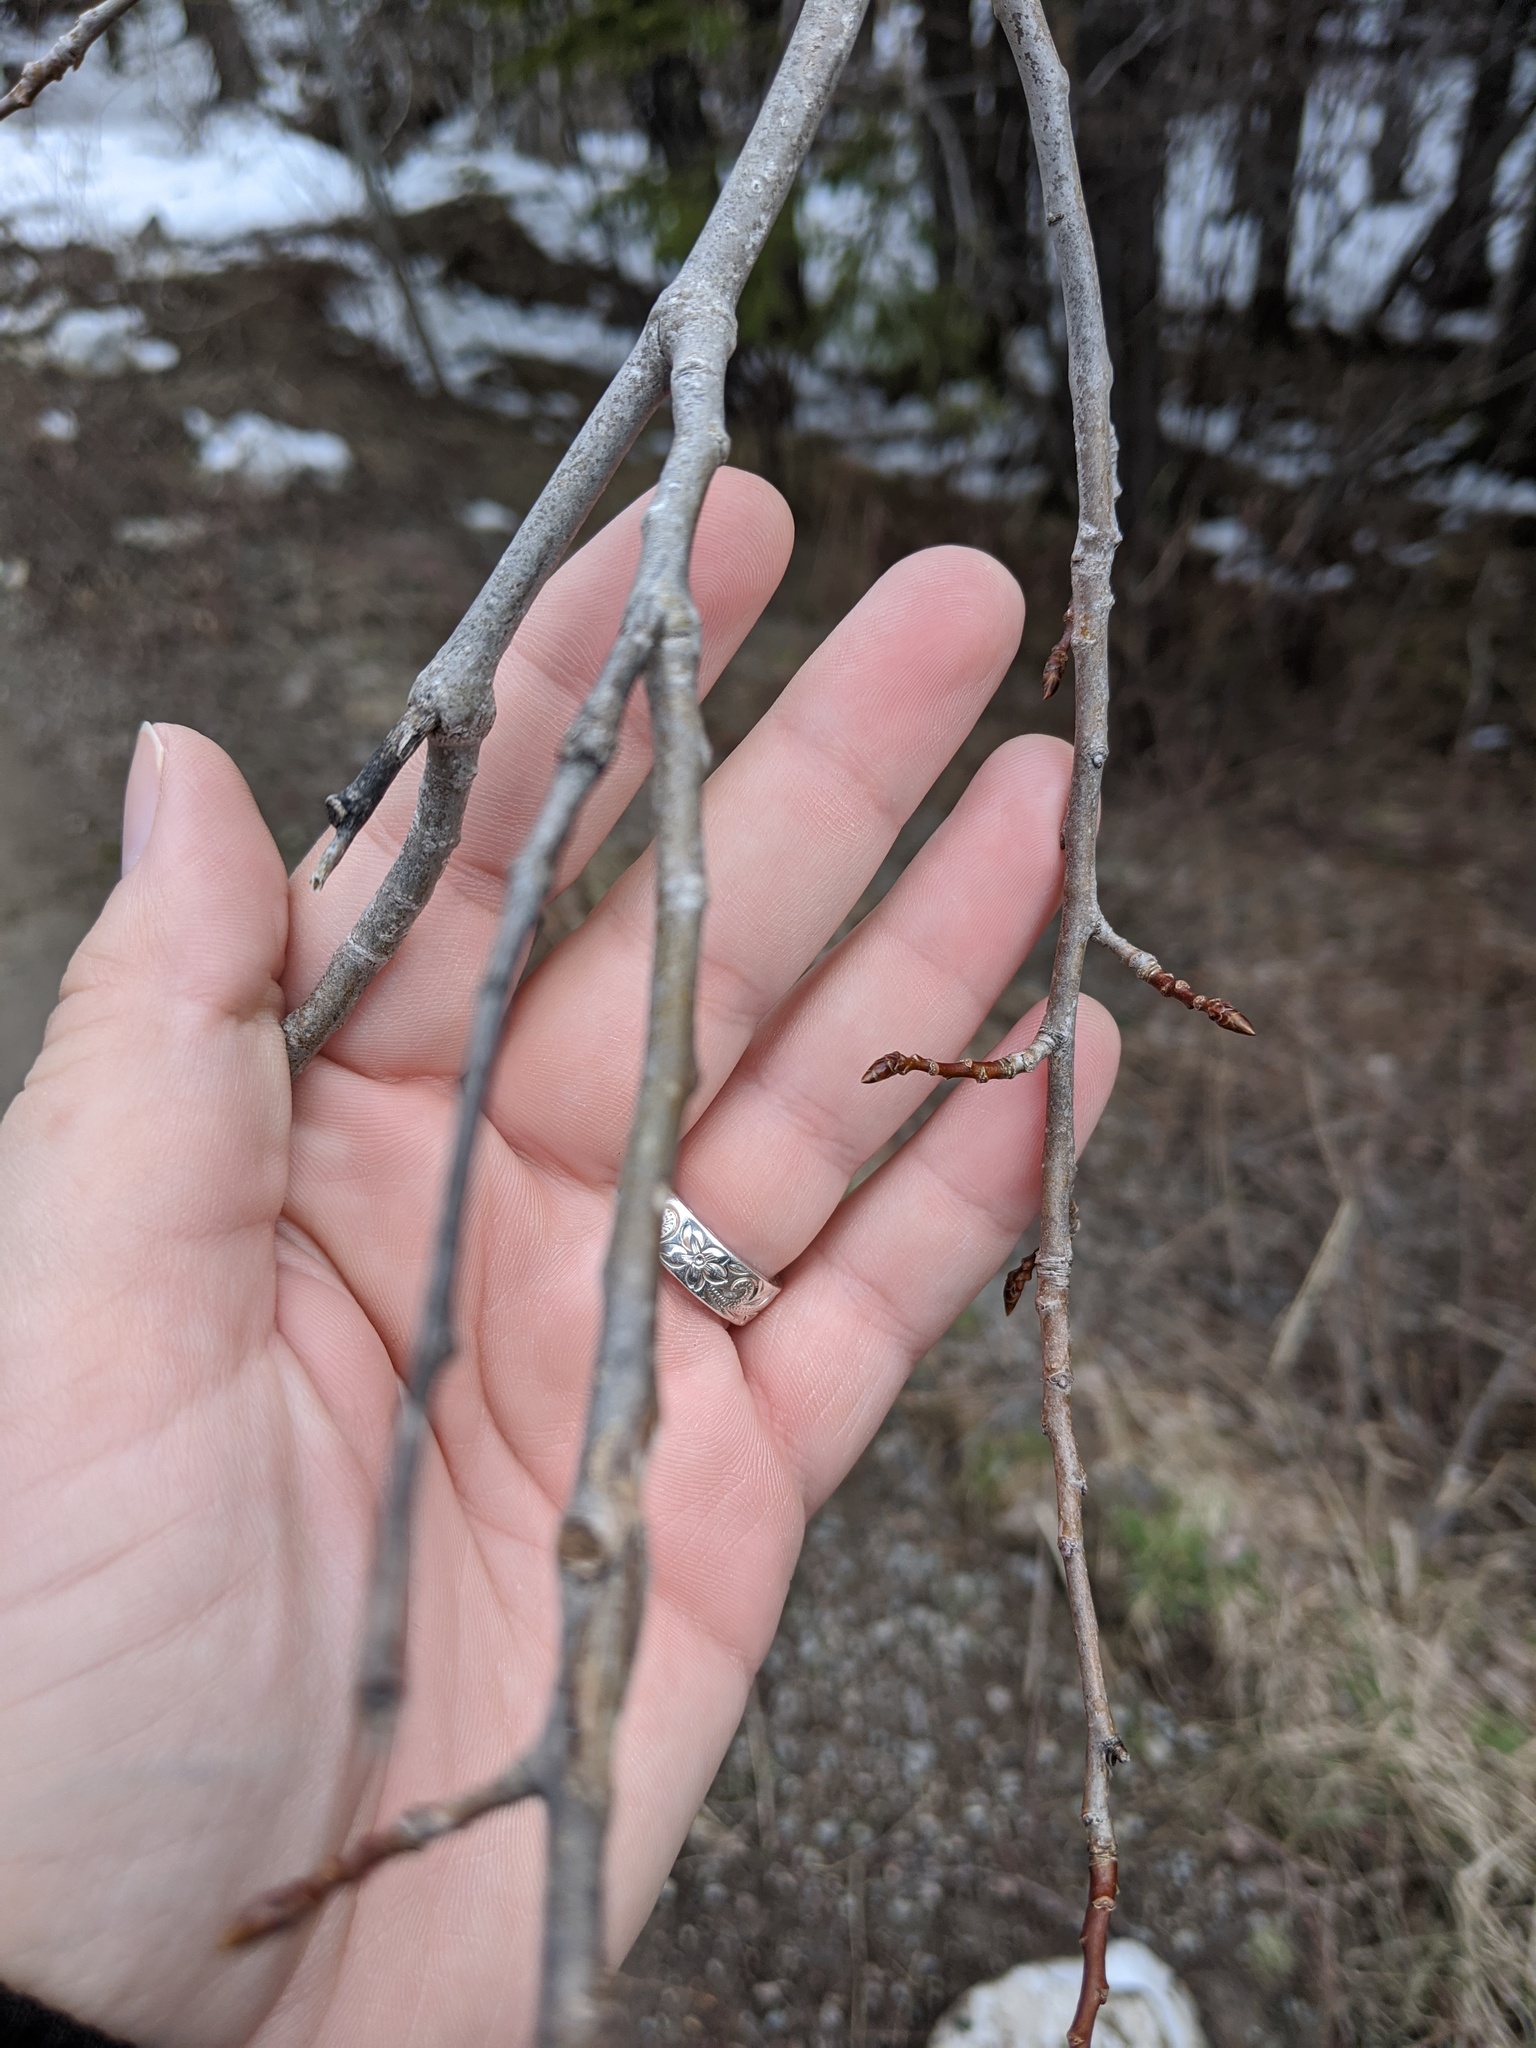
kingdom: Plantae
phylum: Tracheophyta
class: Magnoliopsida
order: Malpighiales
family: Salicaceae
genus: Populus
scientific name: Populus tremuloides
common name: Quaking aspen
